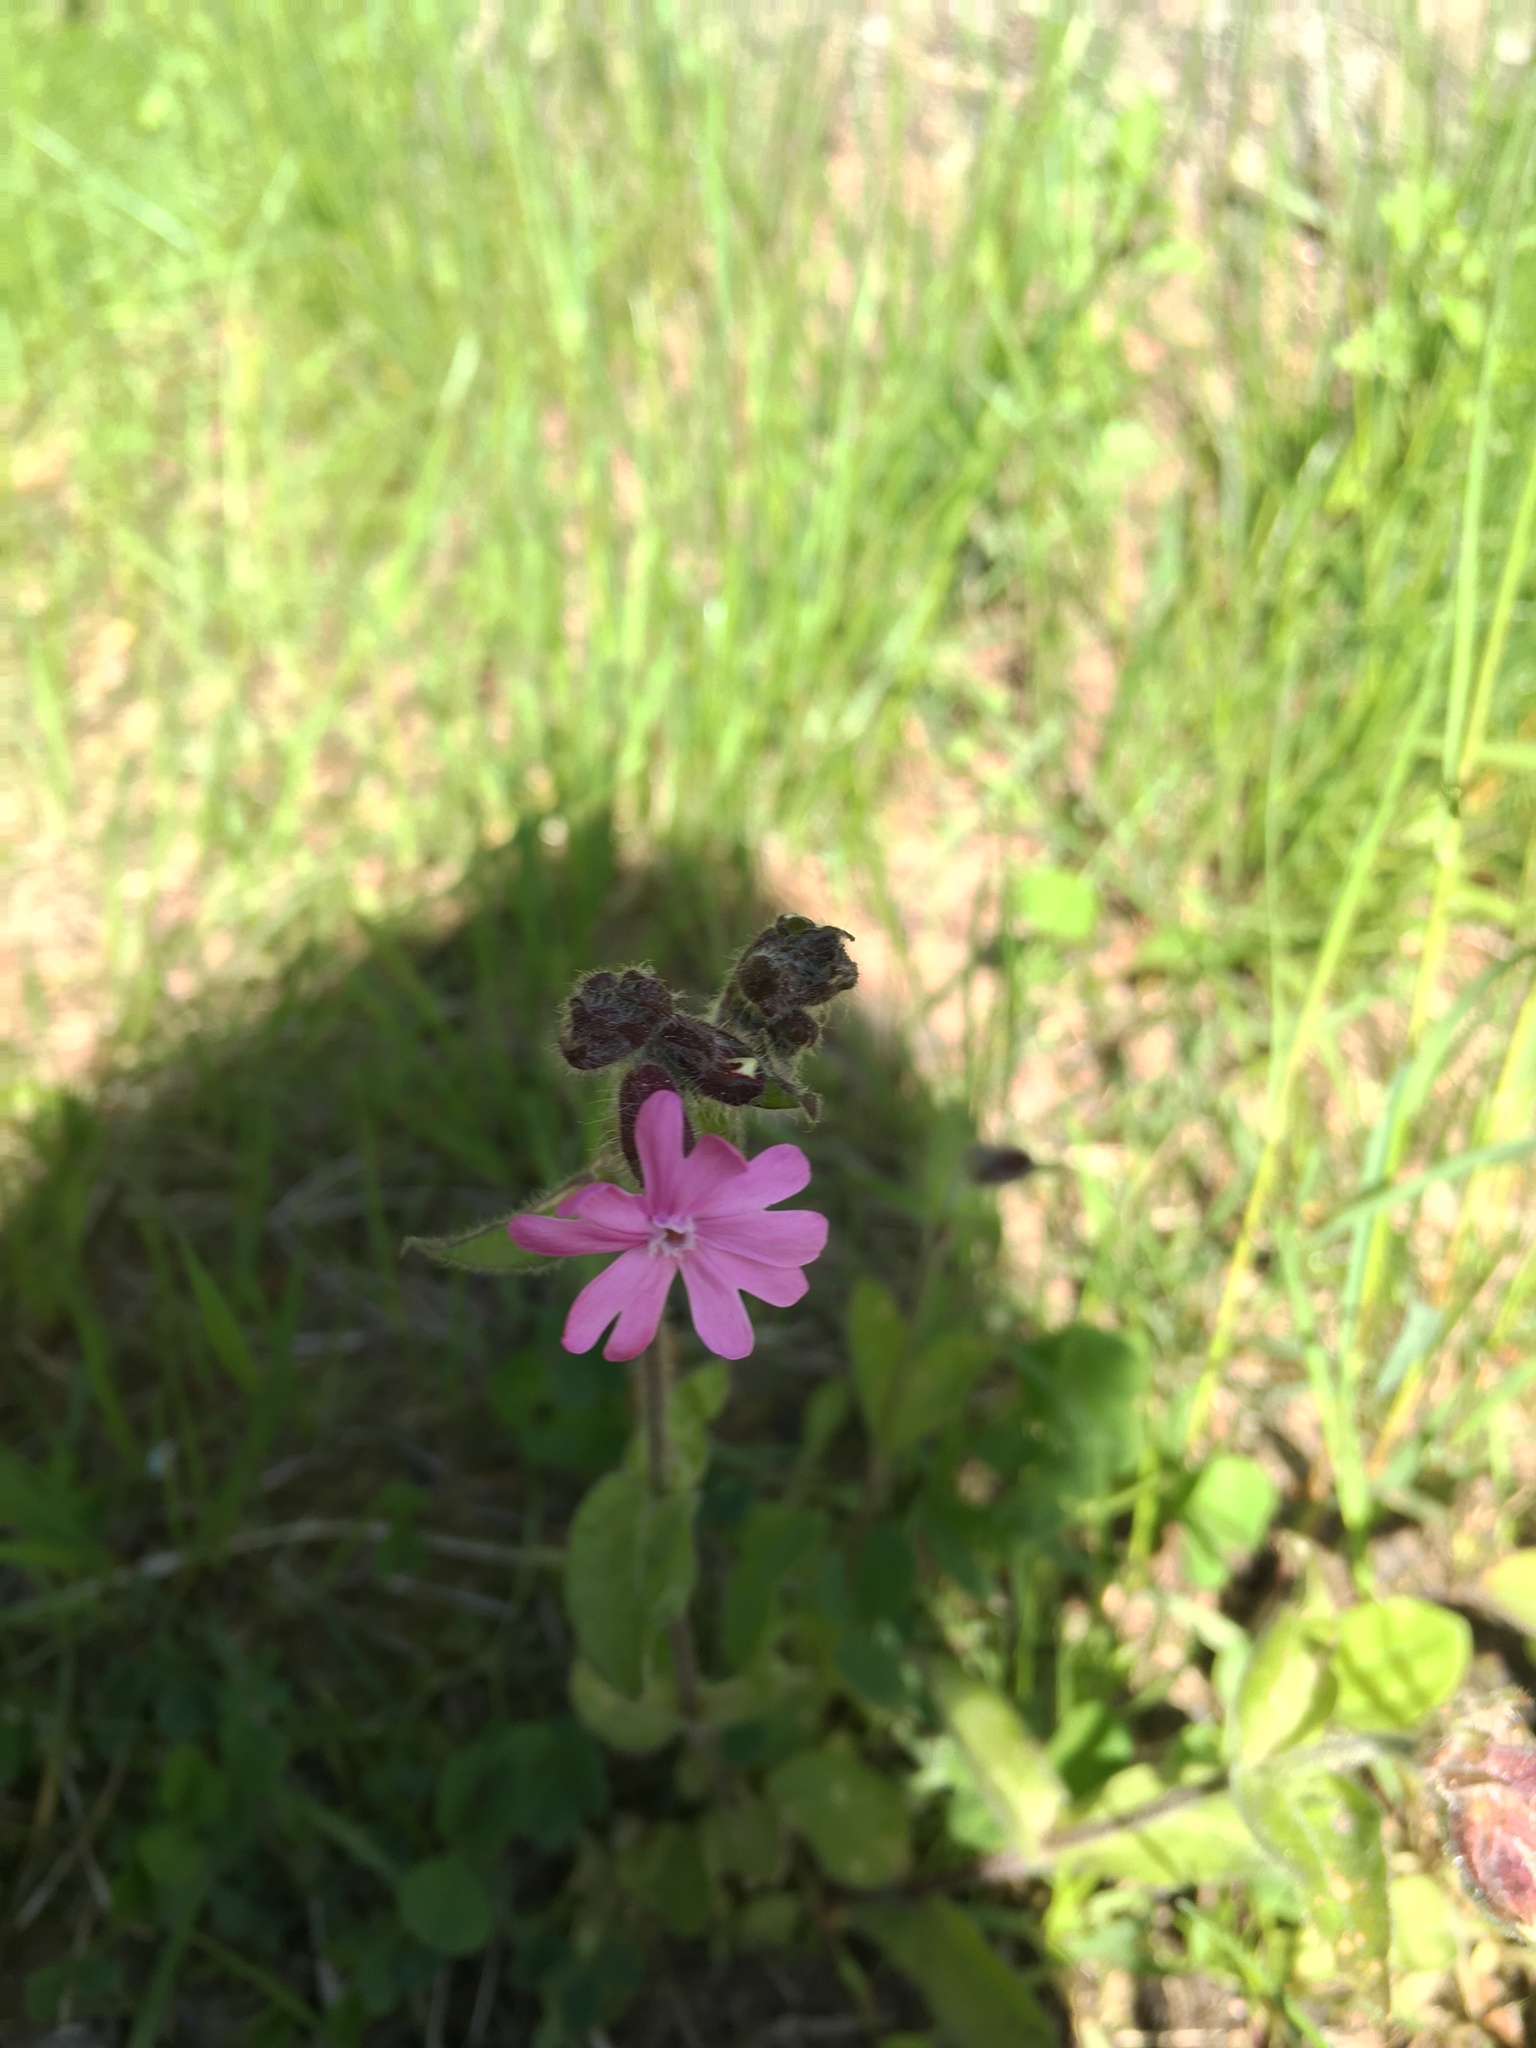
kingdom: Plantae
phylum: Tracheophyta
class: Magnoliopsida
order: Caryophyllales
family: Caryophyllaceae
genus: Silene
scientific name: Silene dioica
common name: Red campion
